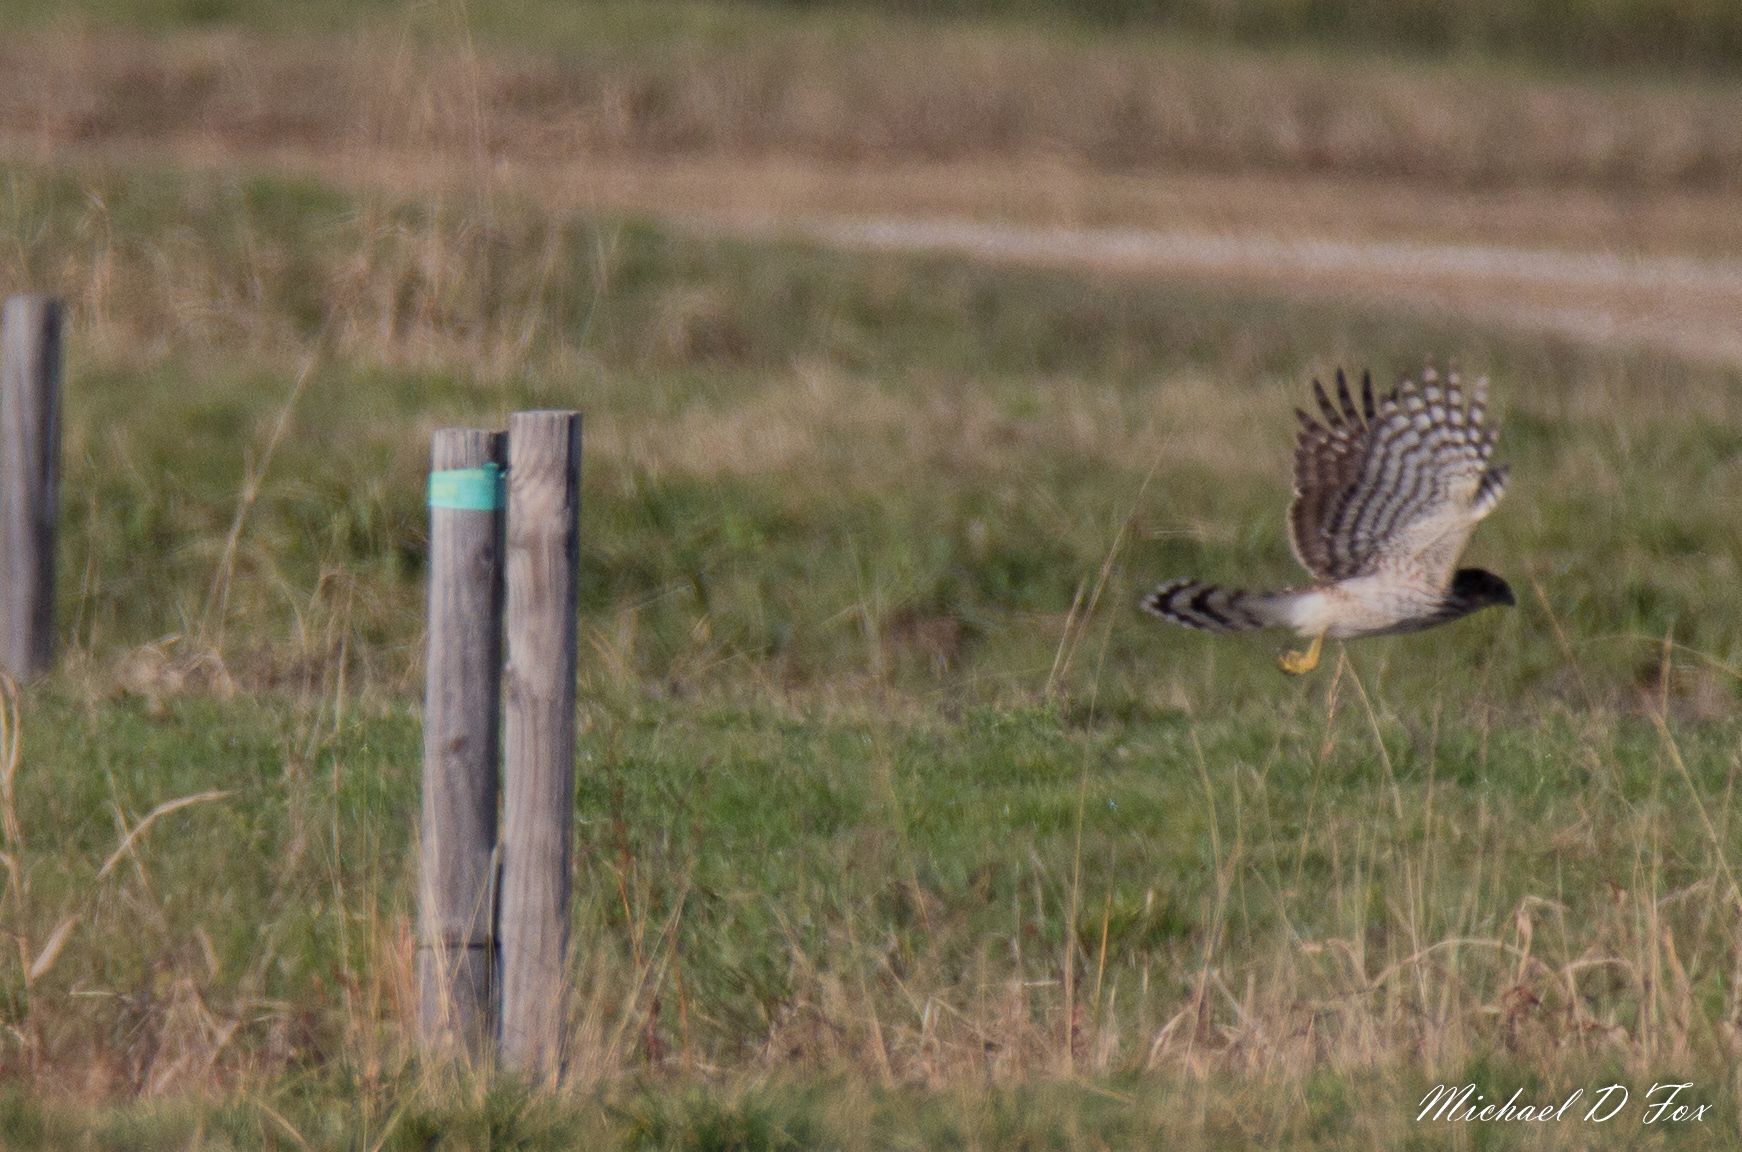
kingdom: Animalia
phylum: Chordata
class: Aves
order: Accipitriformes
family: Accipitridae
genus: Accipiter
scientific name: Accipiter cooperii
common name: Cooper's hawk
